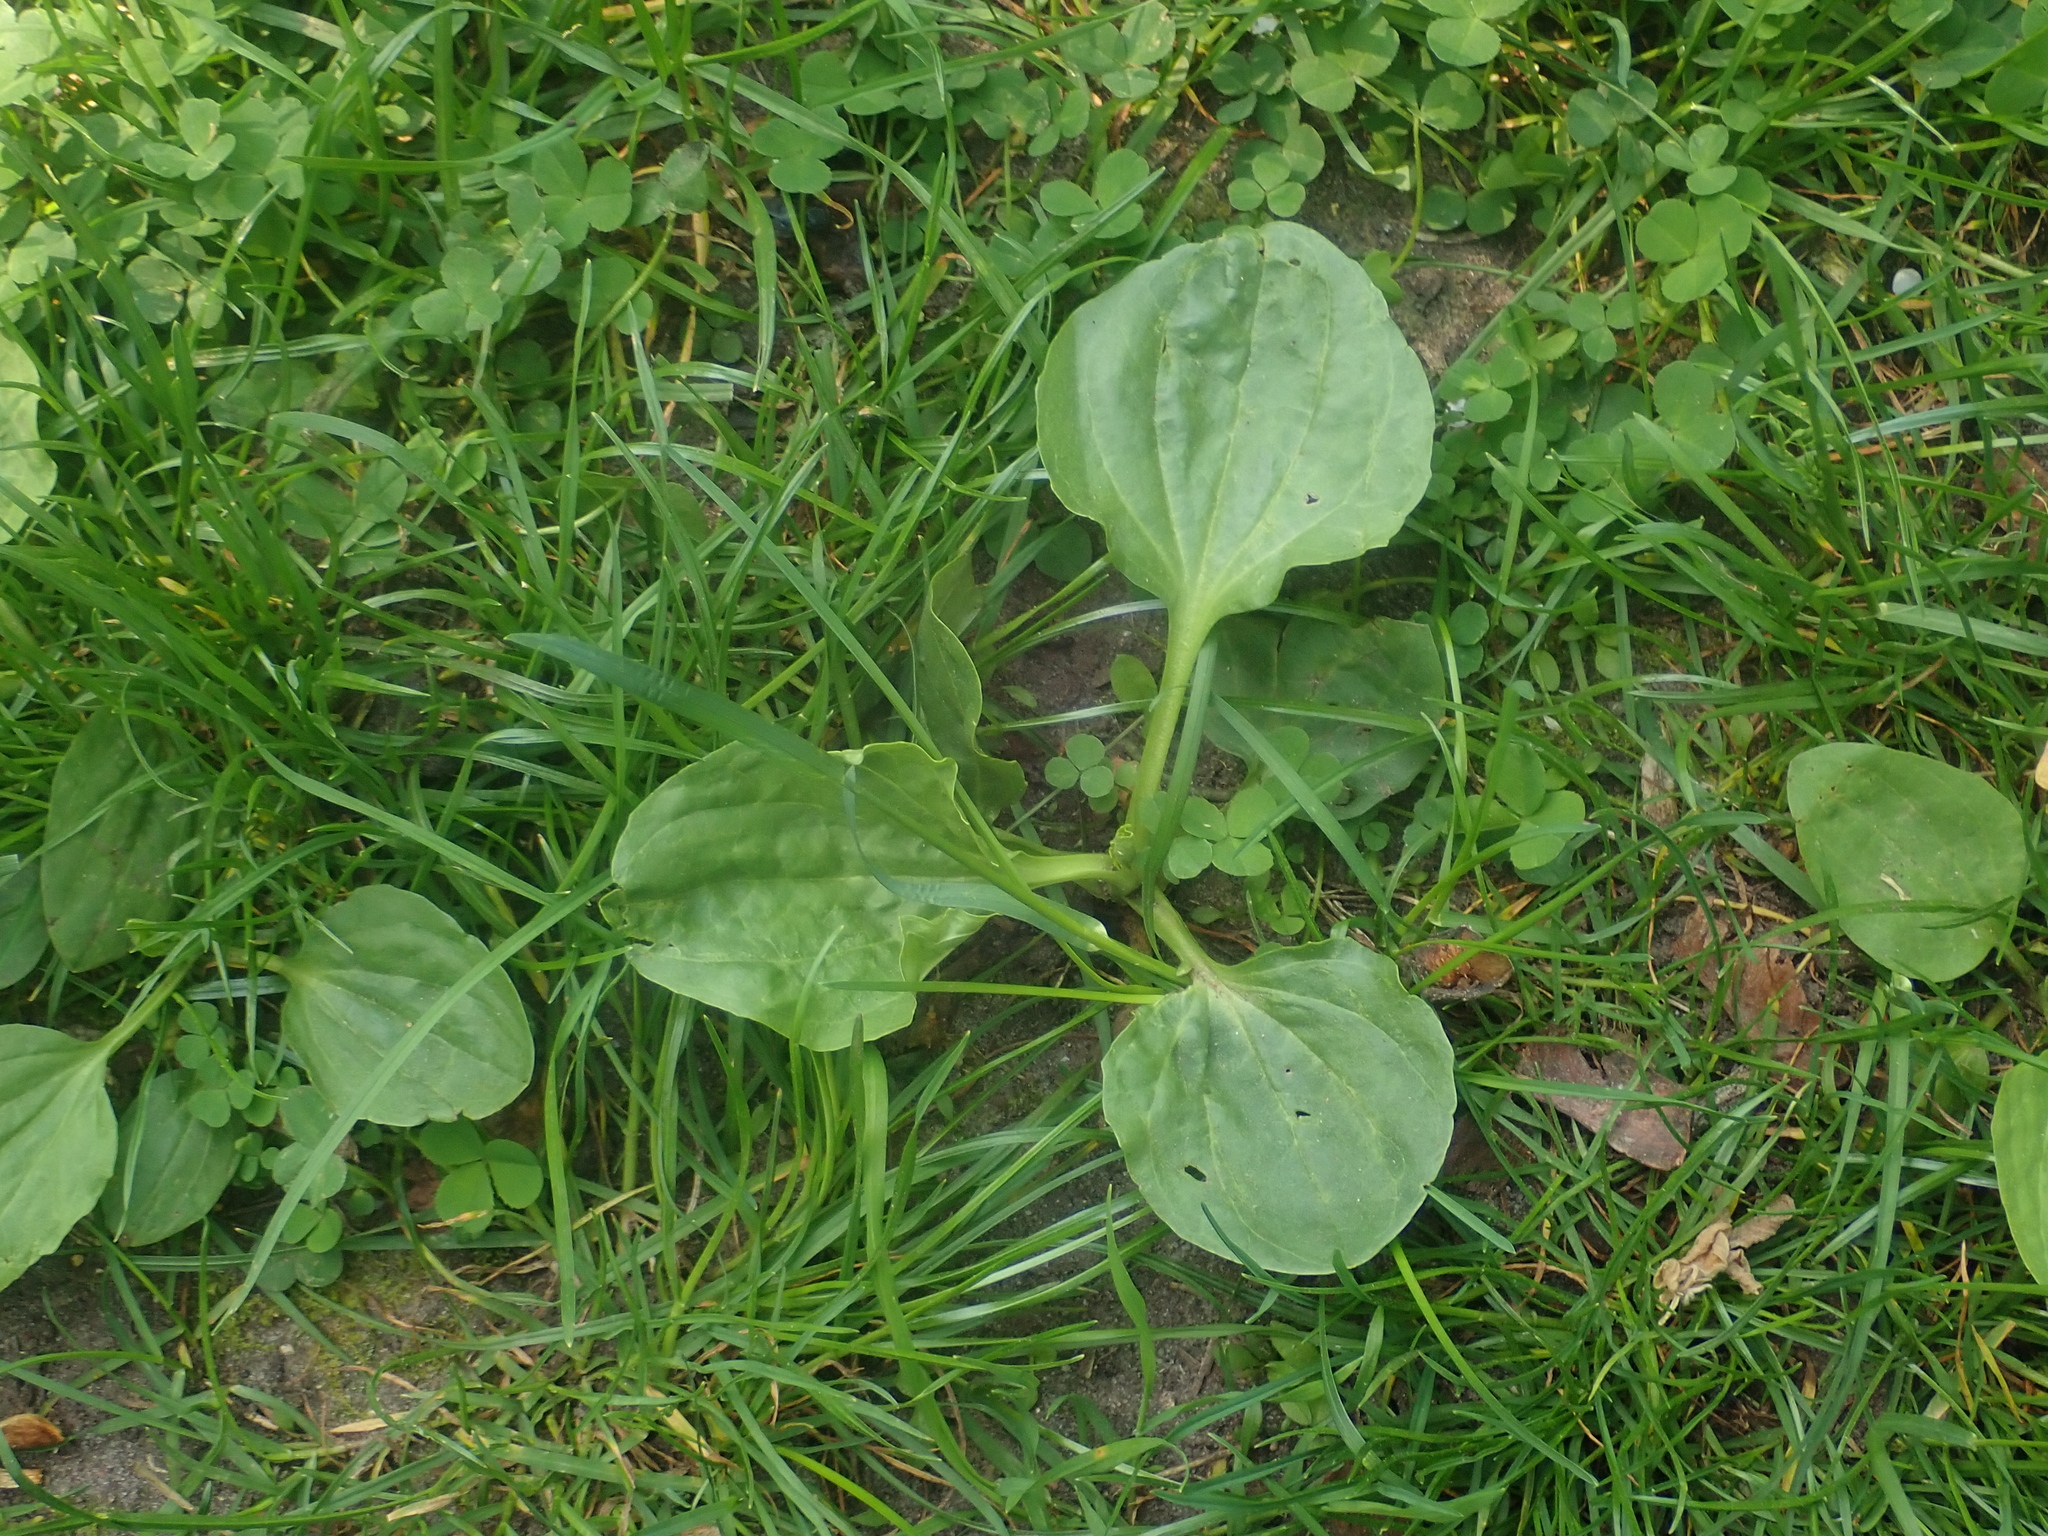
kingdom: Plantae
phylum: Tracheophyta
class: Magnoliopsida
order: Lamiales
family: Plantaginaceae
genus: Plantago
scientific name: Plantago major
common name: Common plantain
